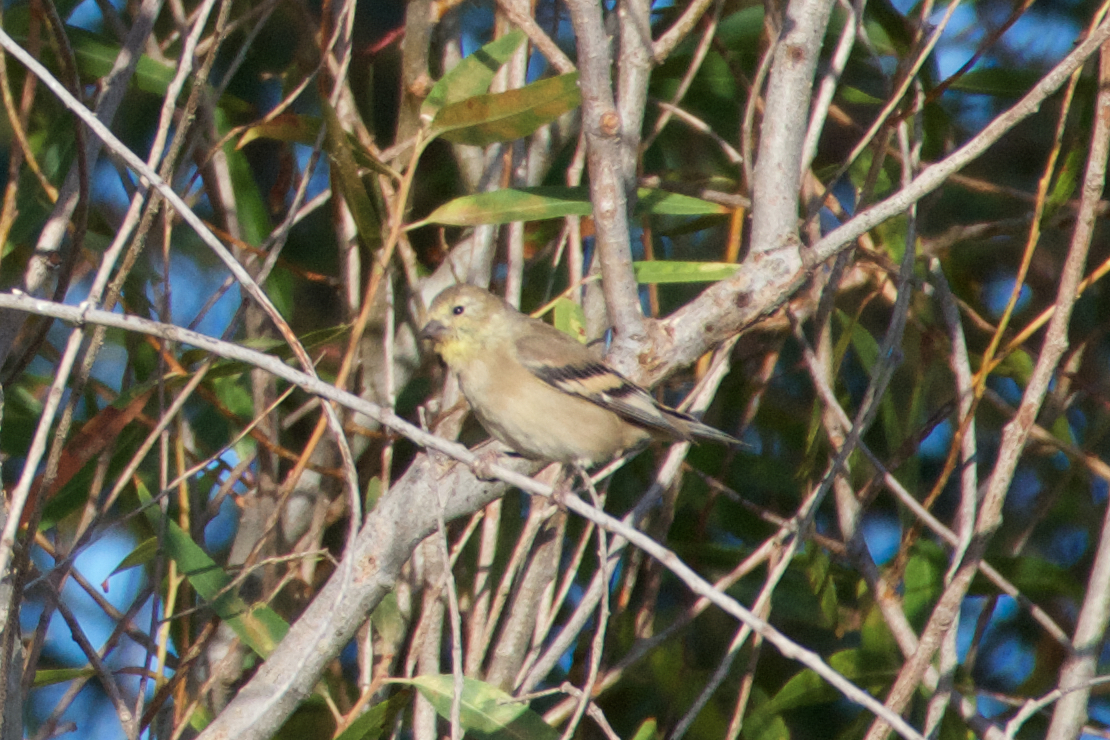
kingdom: Animalia
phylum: Chordata
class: Aves
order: Passeriformes
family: Fringillidae
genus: Spinus
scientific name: Spinus tristis
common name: American goldfinch
